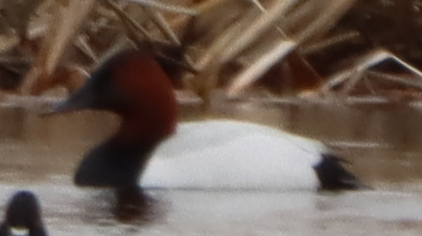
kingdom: Animalia
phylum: Chordata
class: Aves
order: Anseriformes
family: Anatidae
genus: Aythya
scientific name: Aythya valisineria
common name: Canvasback
